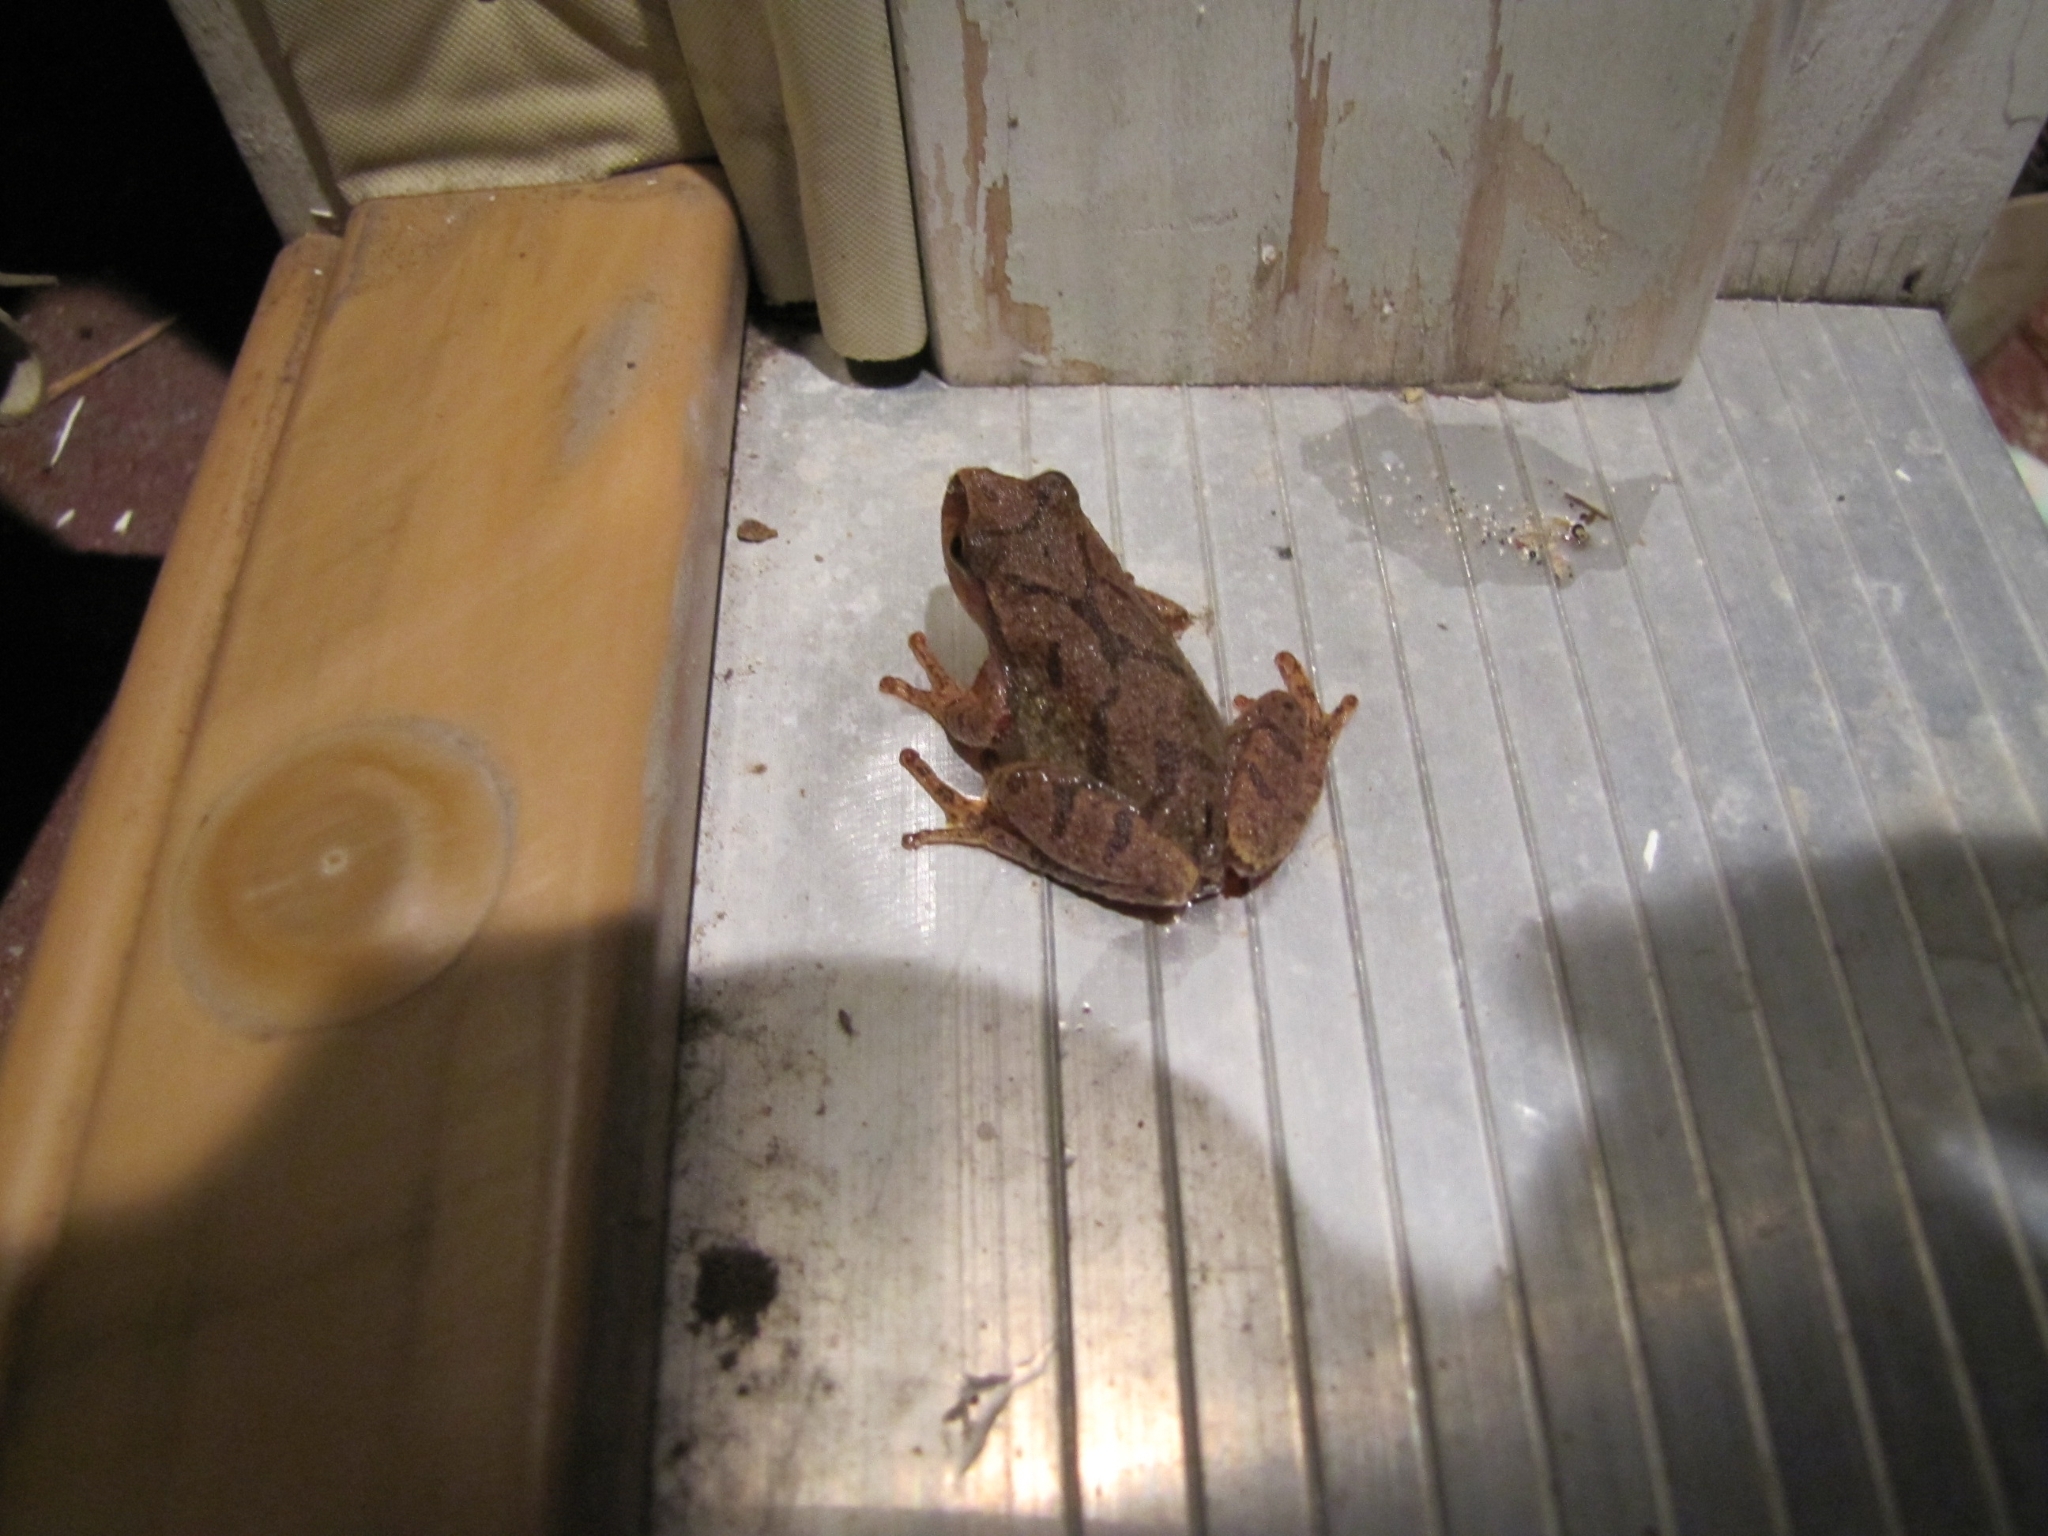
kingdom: Animalia
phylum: Chordata
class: Amphibia
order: Anura
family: Hylidae
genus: Pseudacris
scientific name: Pseudacris crucifer
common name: Spring peeper
